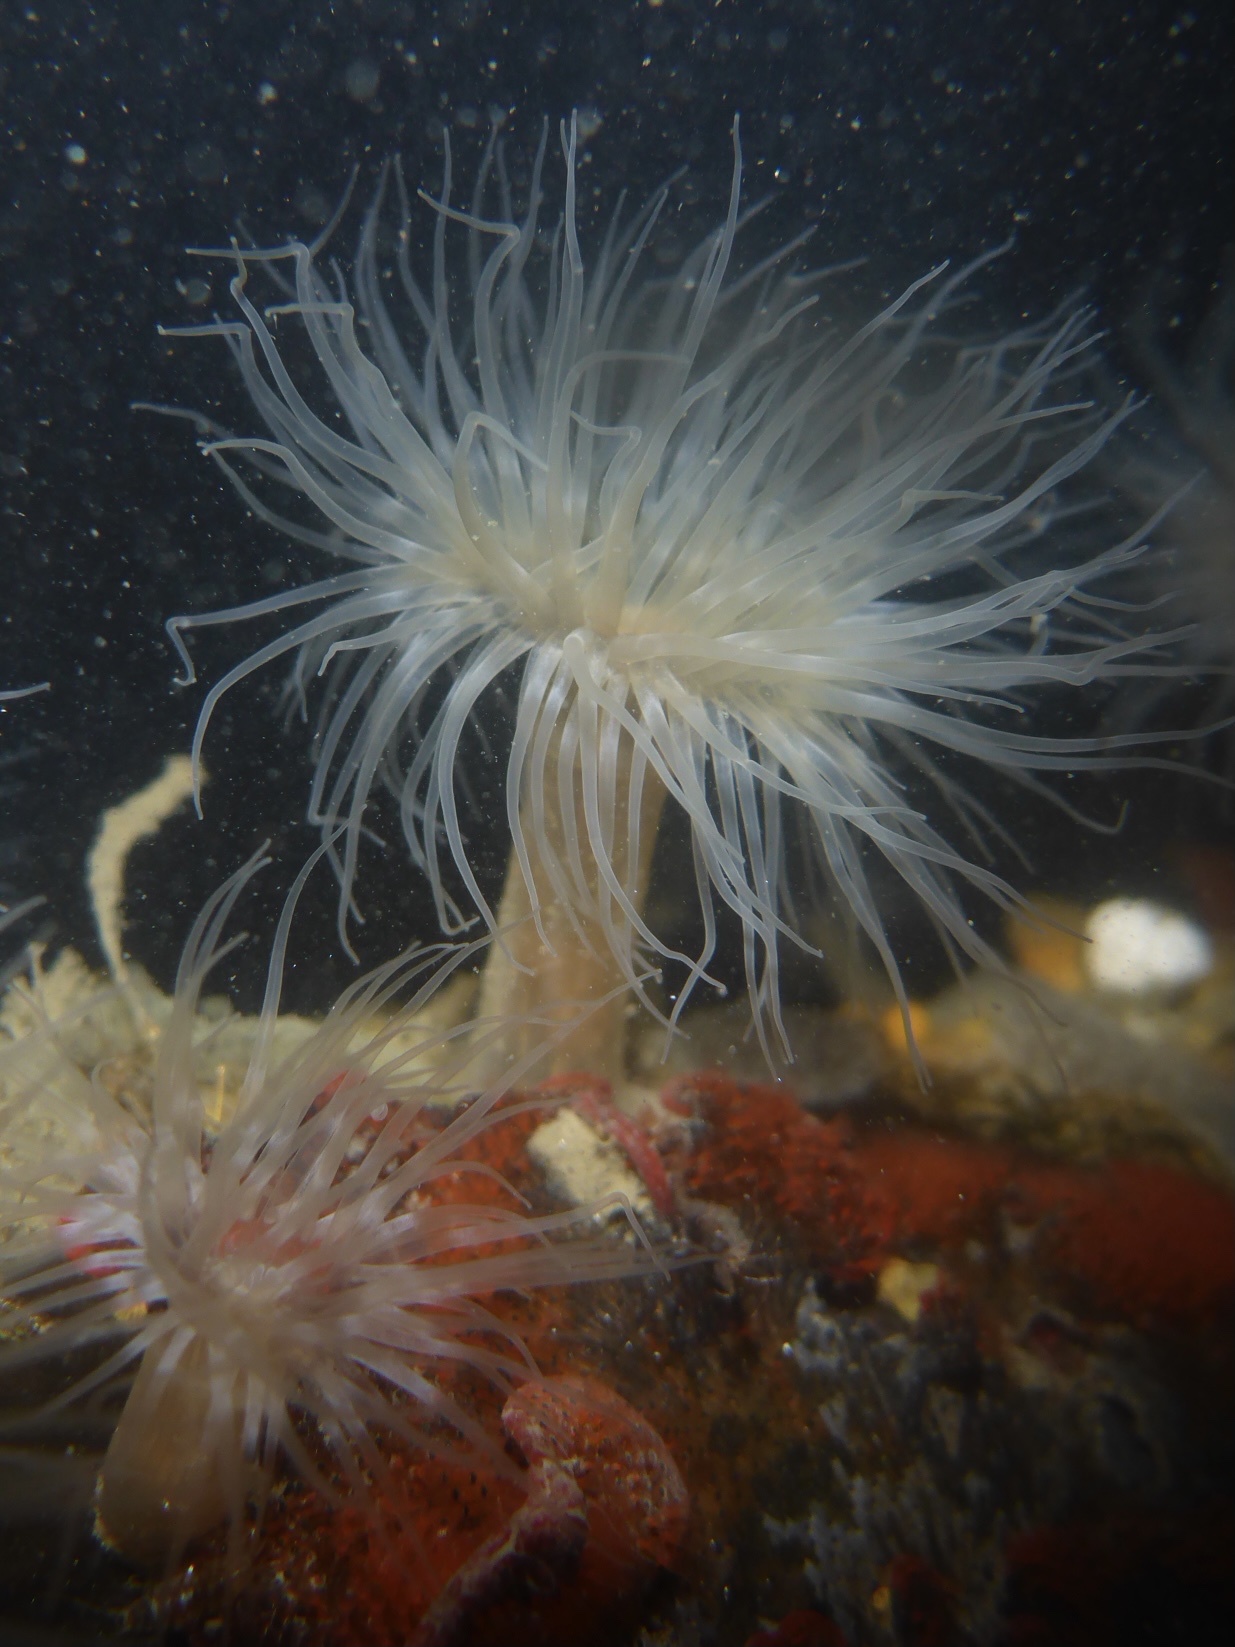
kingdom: Animalia
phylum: Cnidaria
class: Anthozoa
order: Actiniaria
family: Metridiidae
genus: Metridium
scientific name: Metridium senile
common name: Clonal plumose anemone
